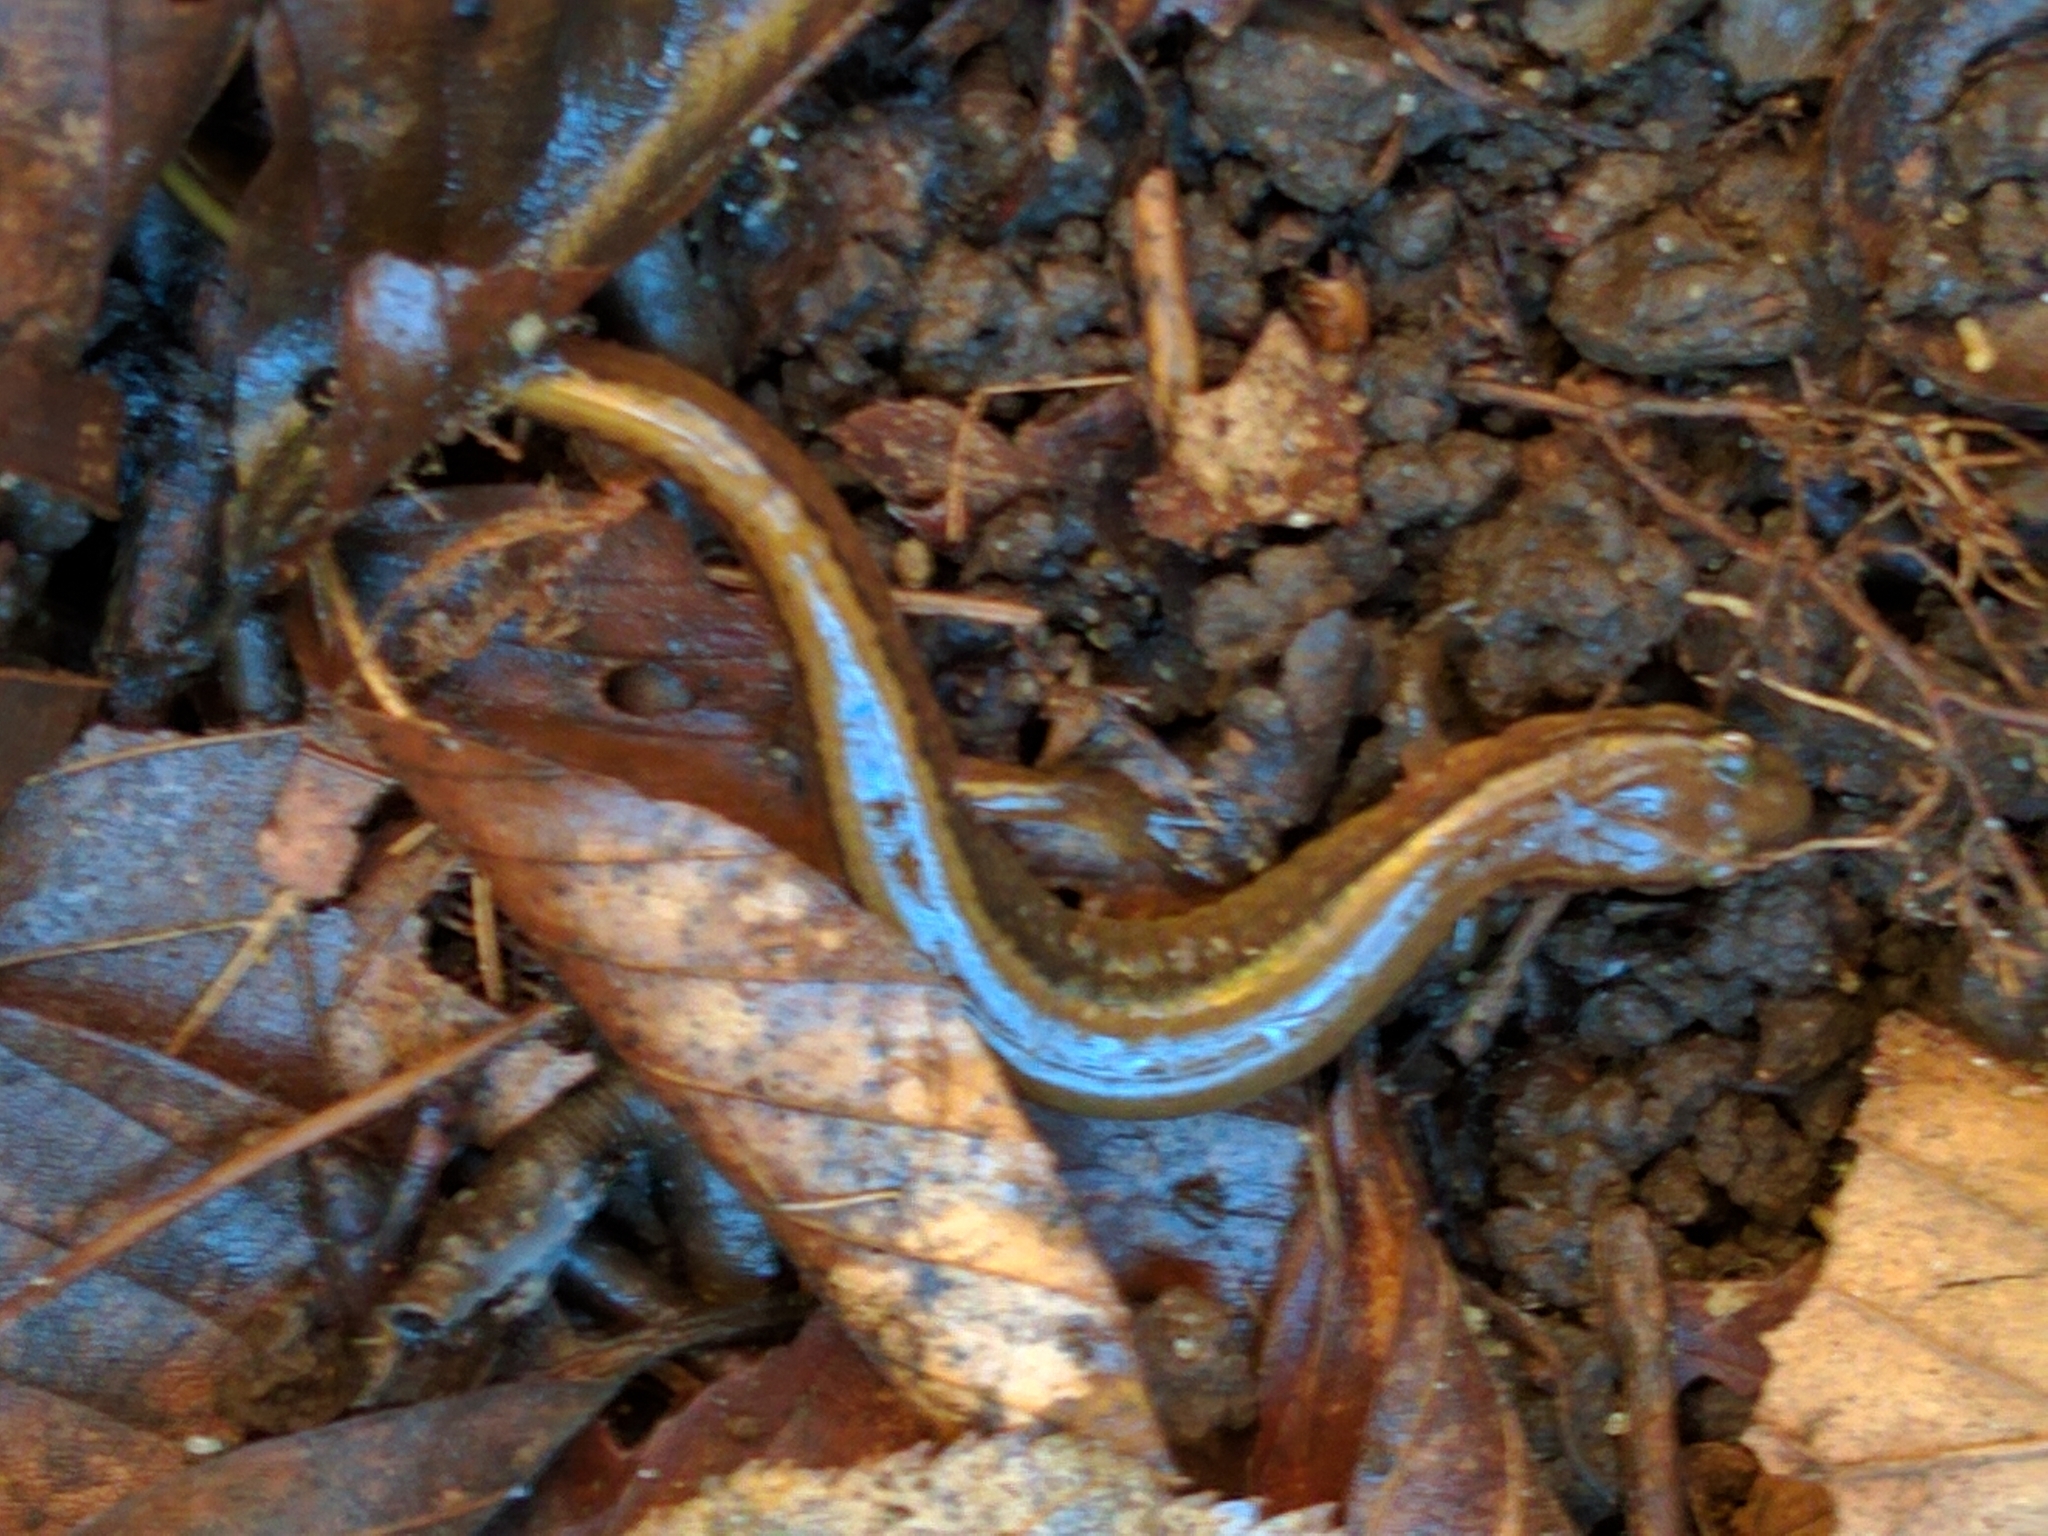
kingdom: Animalia
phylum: Chordata
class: Amphibia
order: Caudata
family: Plethodontidae
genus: Eurycea
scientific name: Eurycea bislineata
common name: Northern two-lined salamander
